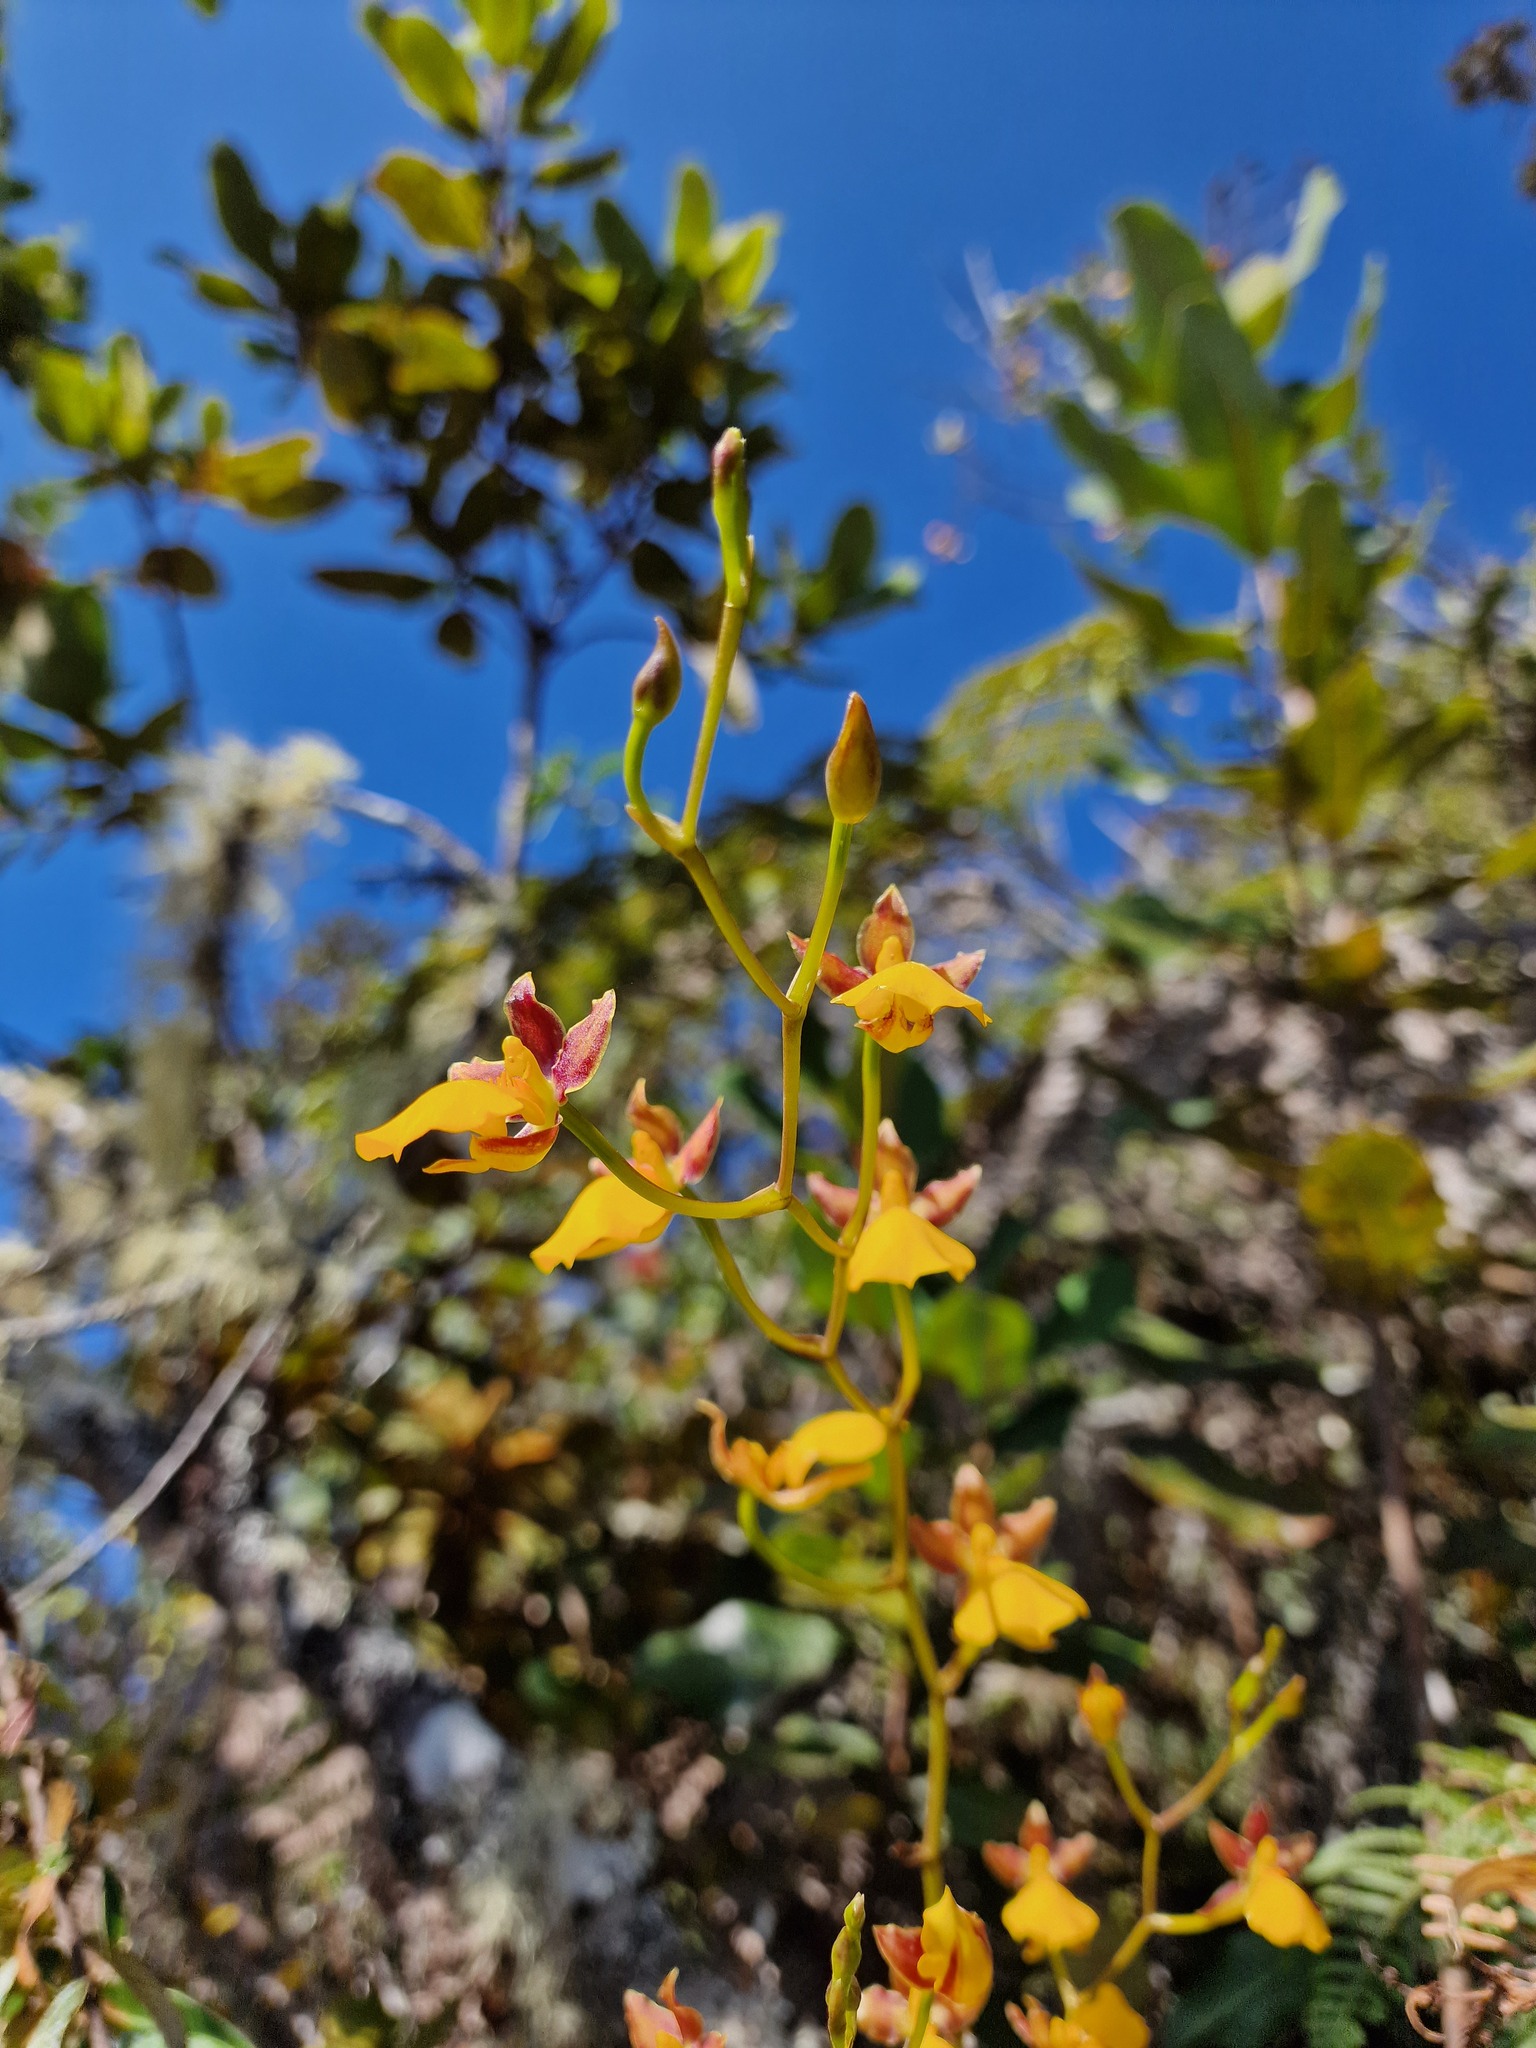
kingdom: Plantae
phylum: Tracheophyta
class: Liliopsida
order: Asparagales
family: Orchidaceae
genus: Cyrtochilum
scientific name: Cyrtochilum aureum
